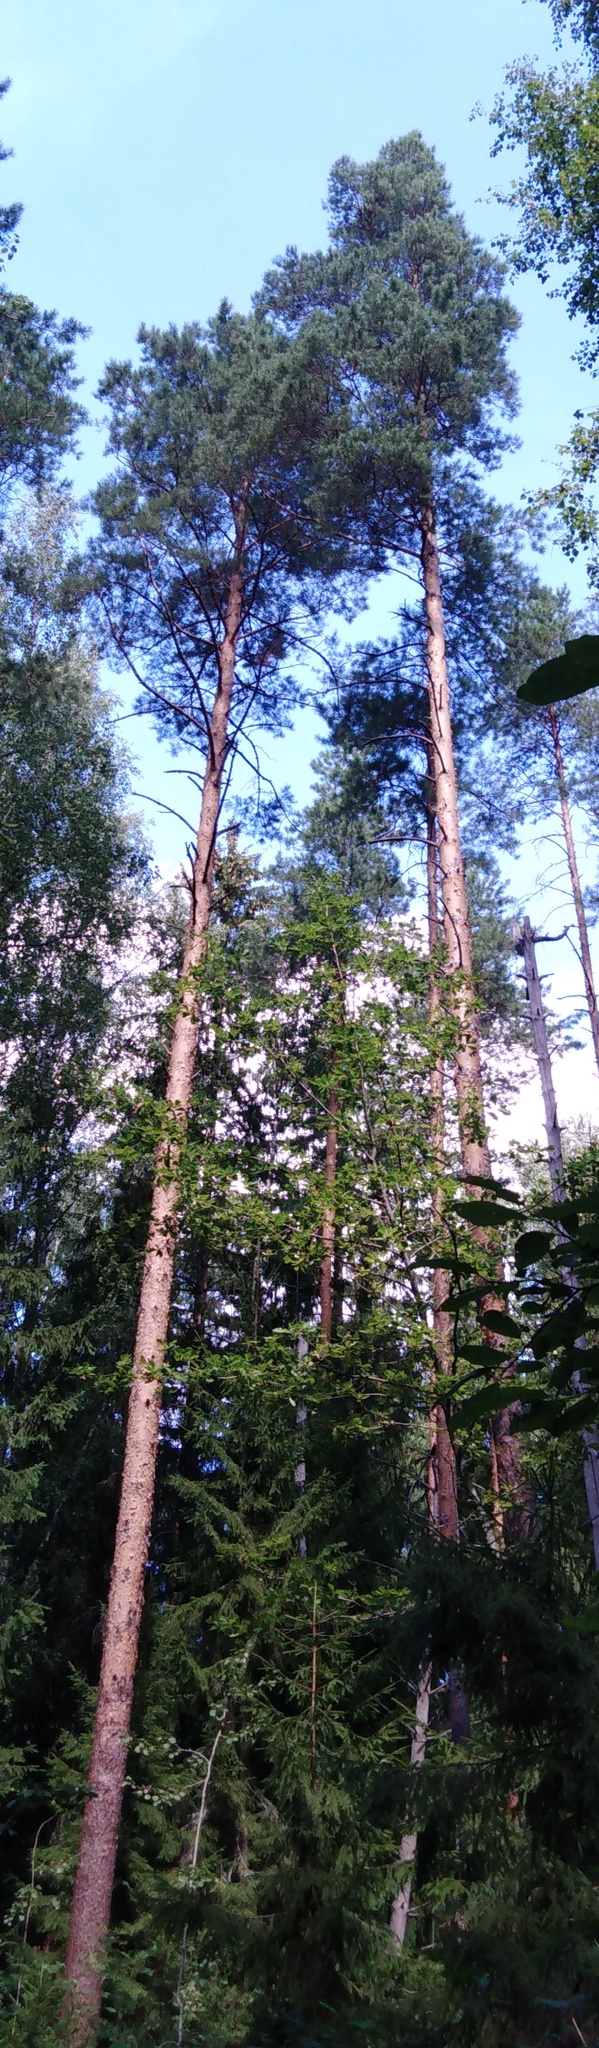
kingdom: Plantae
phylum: Tracheophyta
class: Pinopsida
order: Pinales
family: Pinaceae
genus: Pinus
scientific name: Pinus sylvestris
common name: Scots pine
